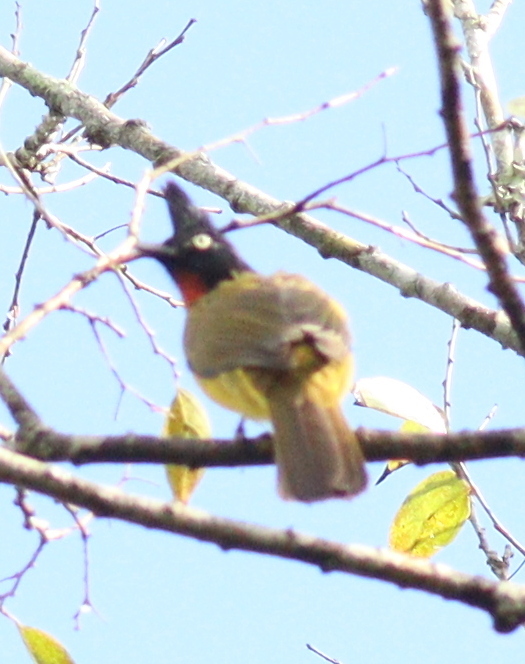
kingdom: Animalia
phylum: Chordata
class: Aves
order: Passeriformes
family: Pycnonotidae
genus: Pycnonotus
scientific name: Pycnonotus flaviventris
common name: Black-crested bulbul
